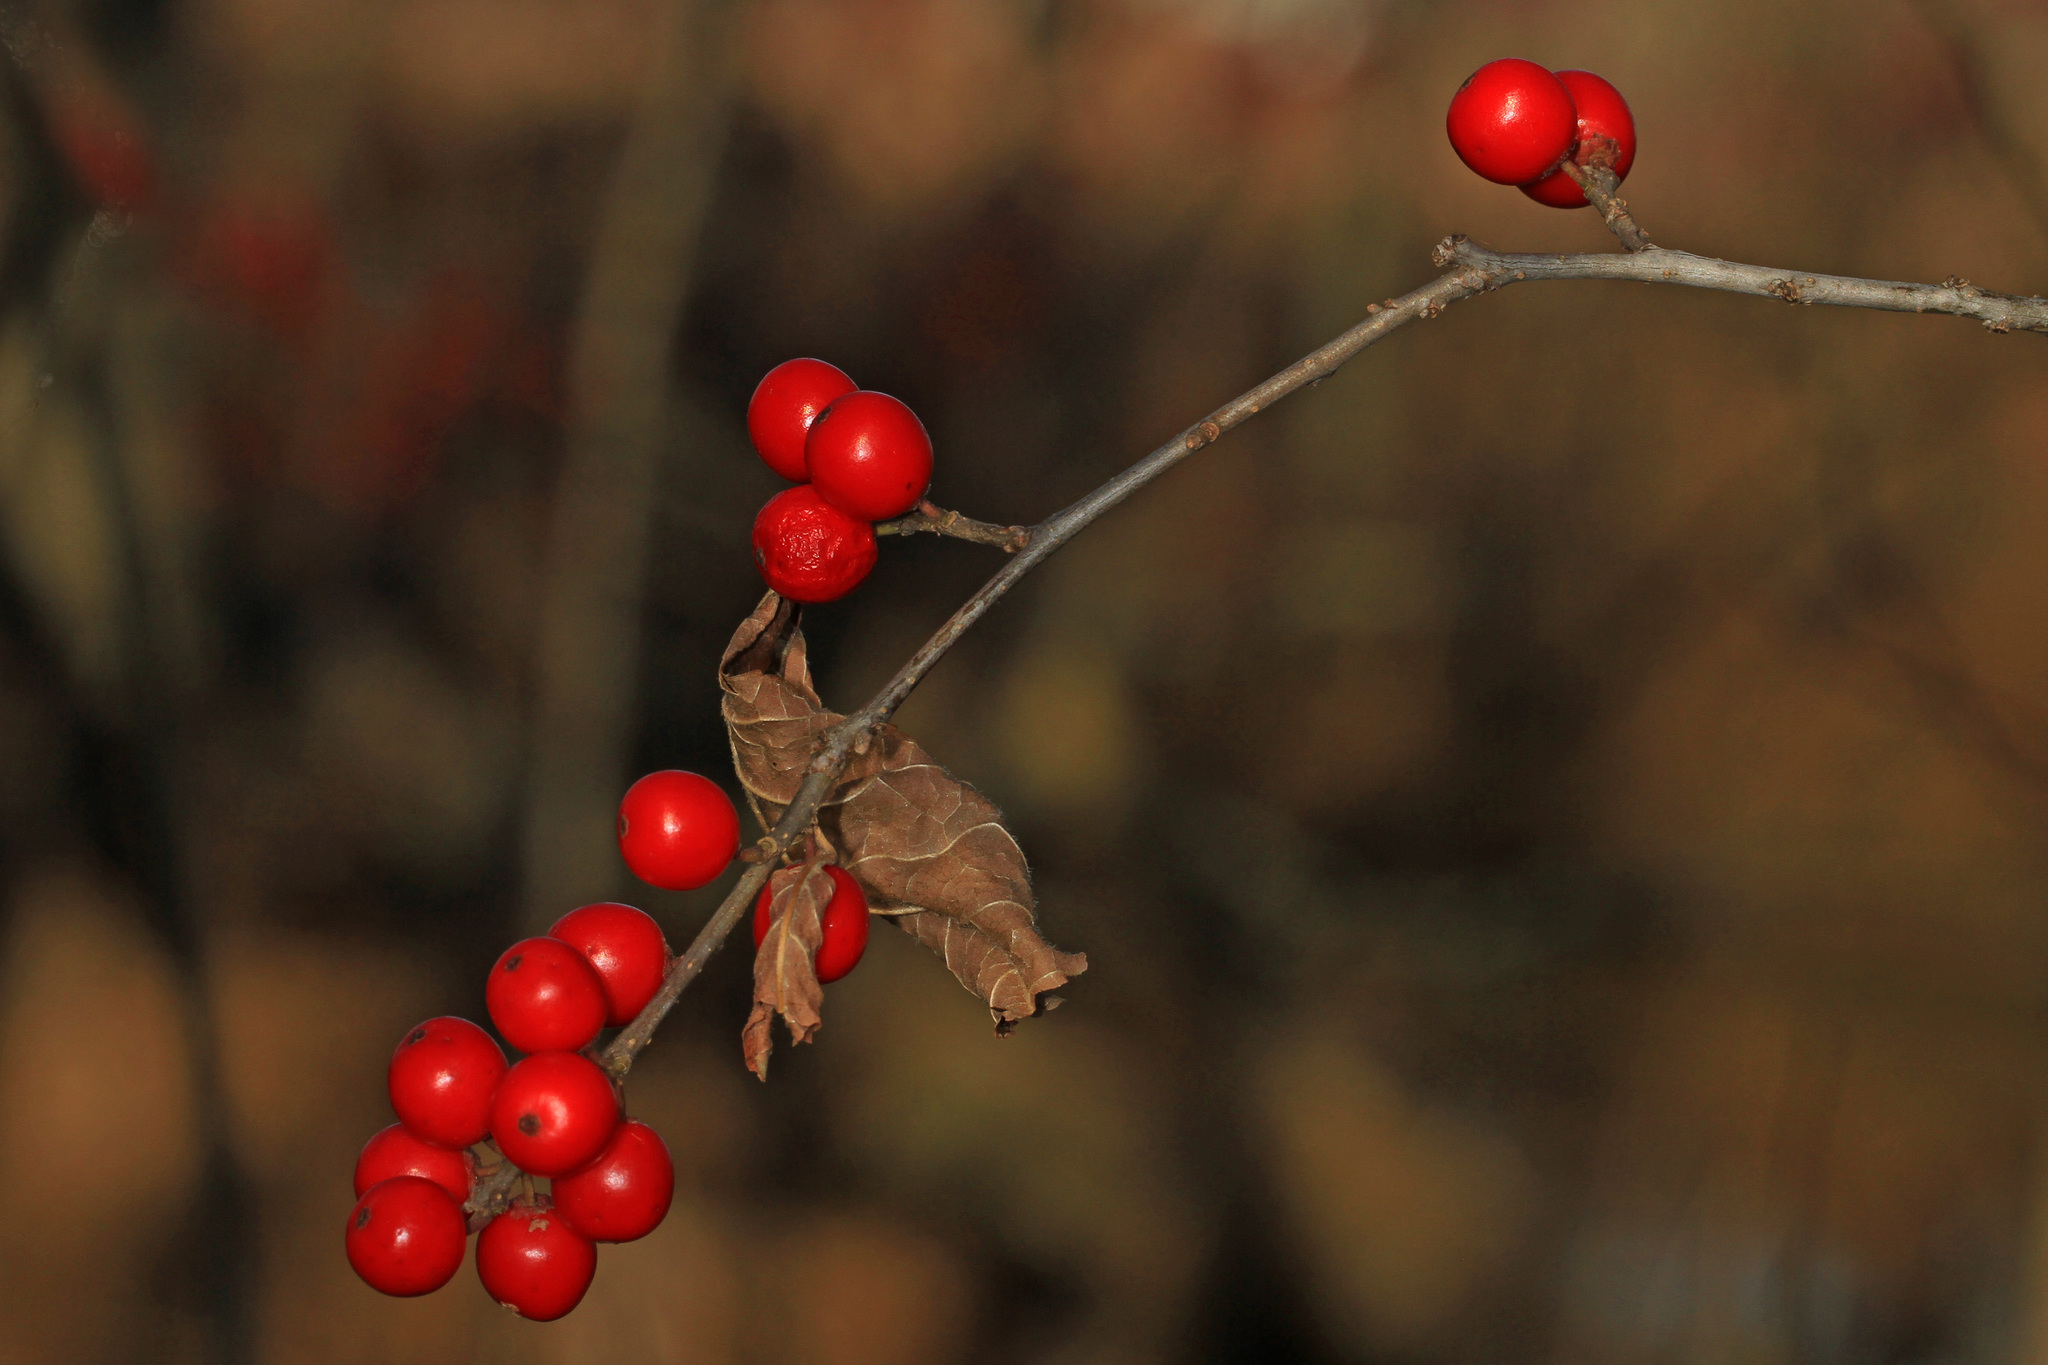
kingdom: Plantae
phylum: Tracheophyta
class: Magnoliopsida
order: Aquifoliales
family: Aquifoliaceae
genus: Ilex
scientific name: Ilex verticillata
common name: Virginia winterberry
